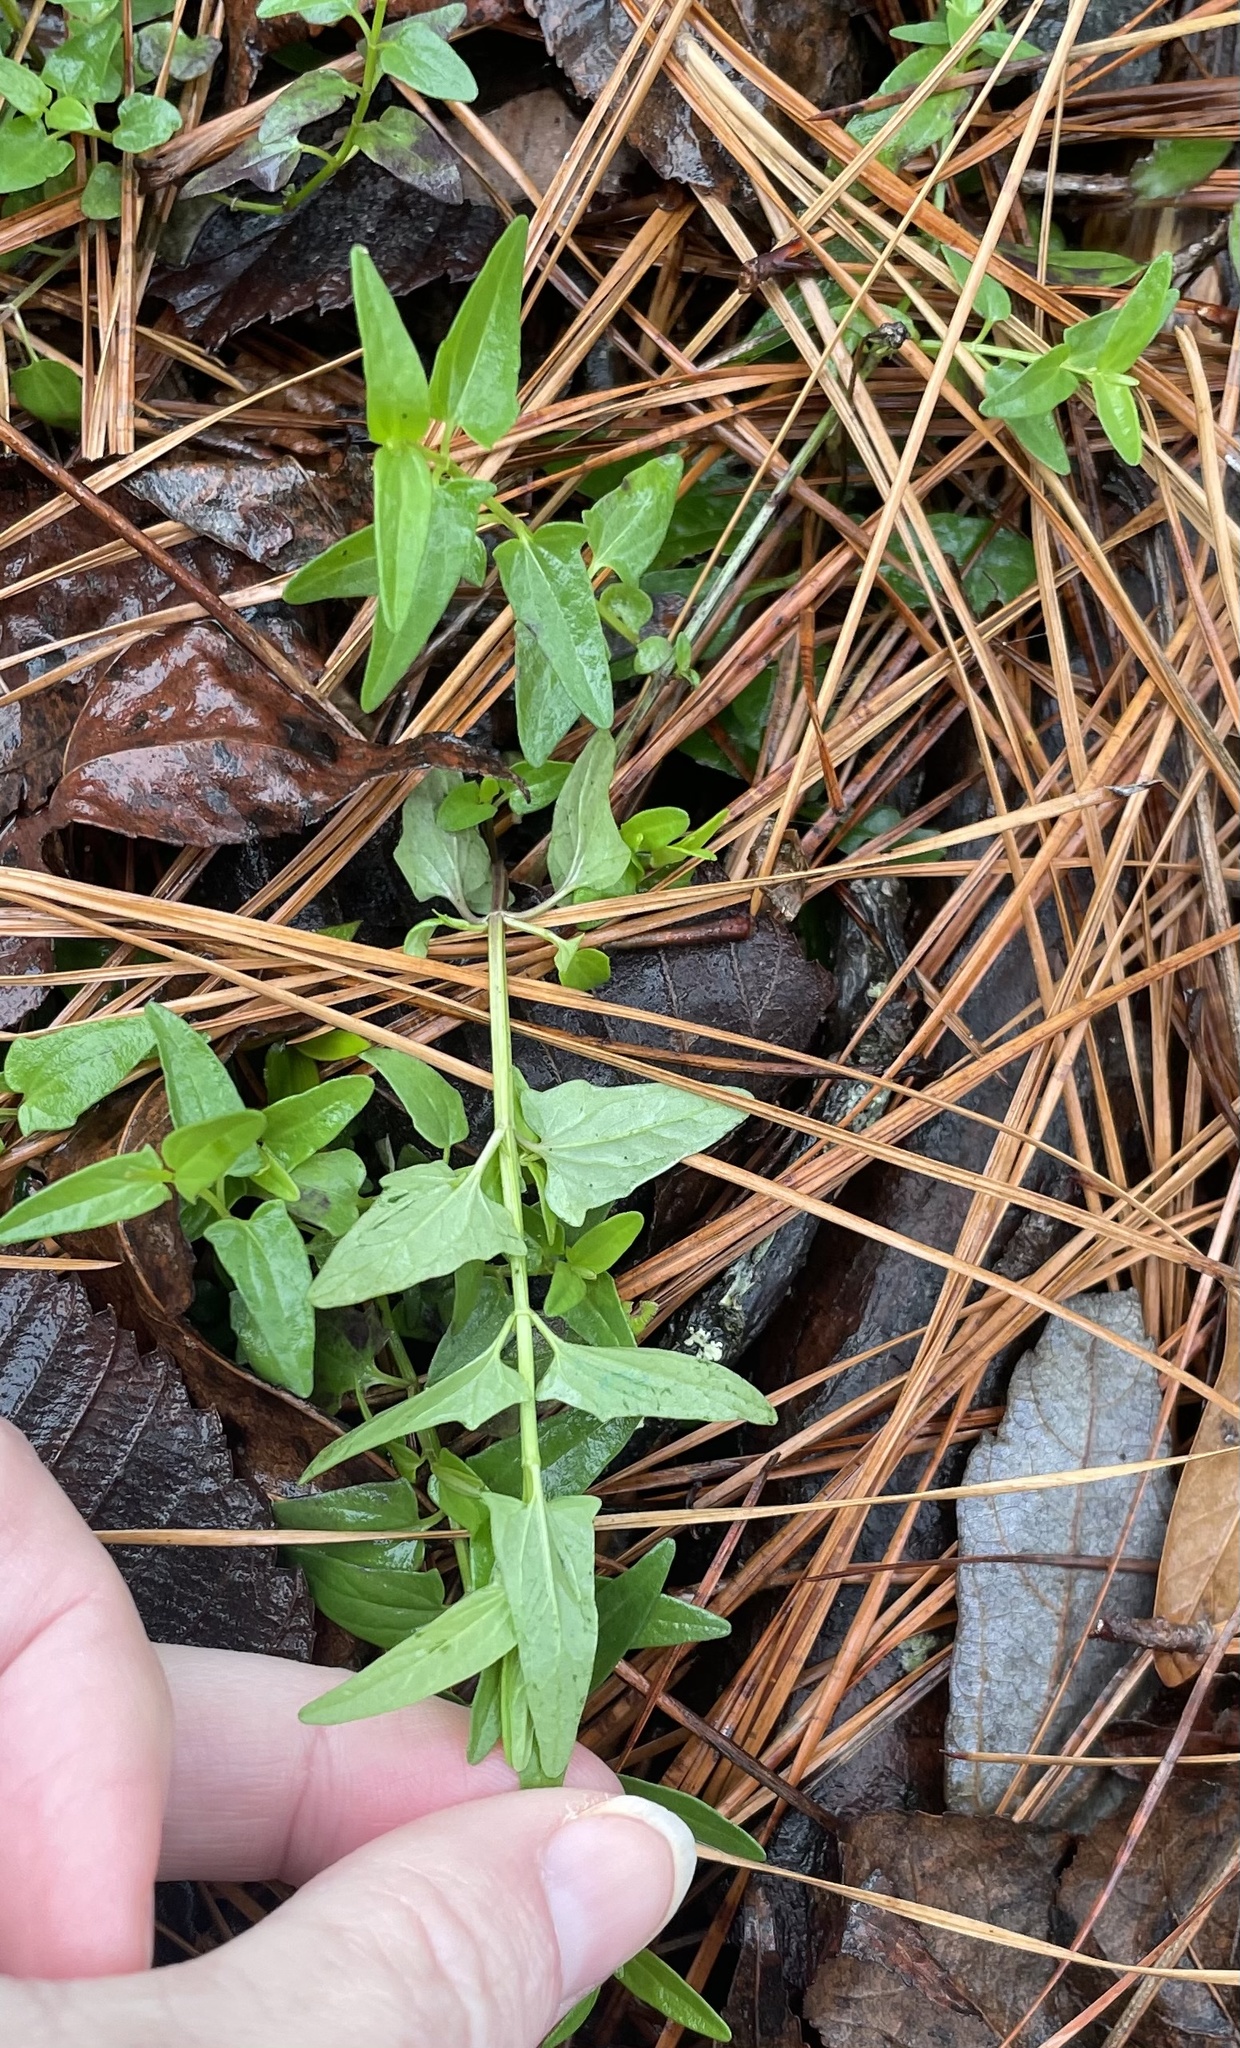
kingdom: Plantae
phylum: Tracheophyta
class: Magnoliopsida
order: Lamiales
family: Lamiaceae
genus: Scutellaria
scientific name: Scutellaria racemosa
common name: South american skullcap
